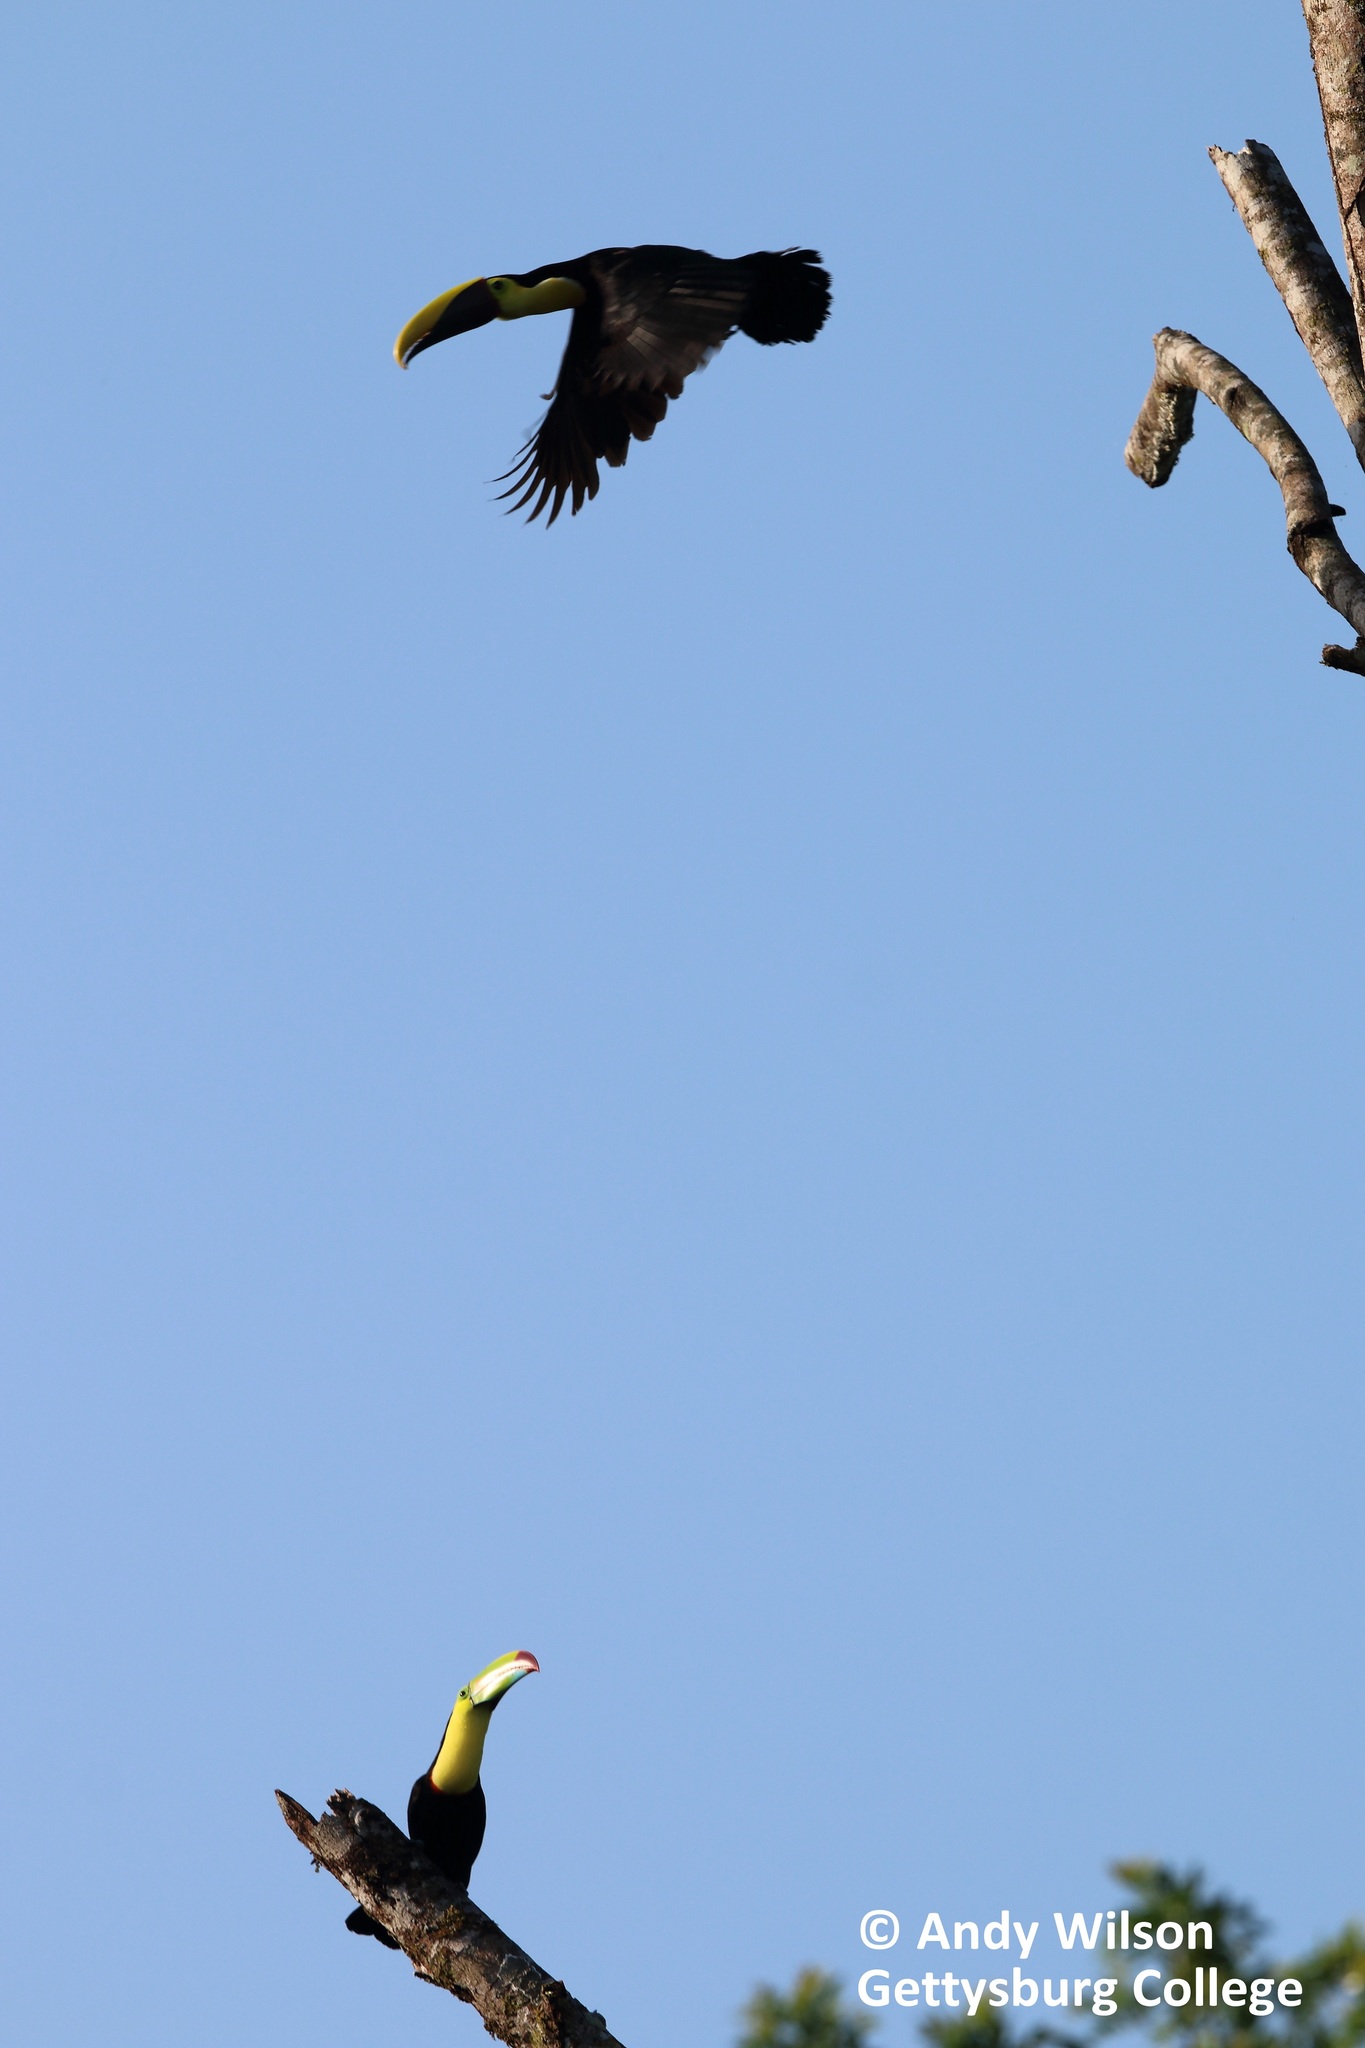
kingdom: Animalia
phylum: Chordata
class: Aves
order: Piciformes
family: Ramphastidae
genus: Ramphastos
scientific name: Ramphastos sulfuratus
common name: Keel-billed toucan
